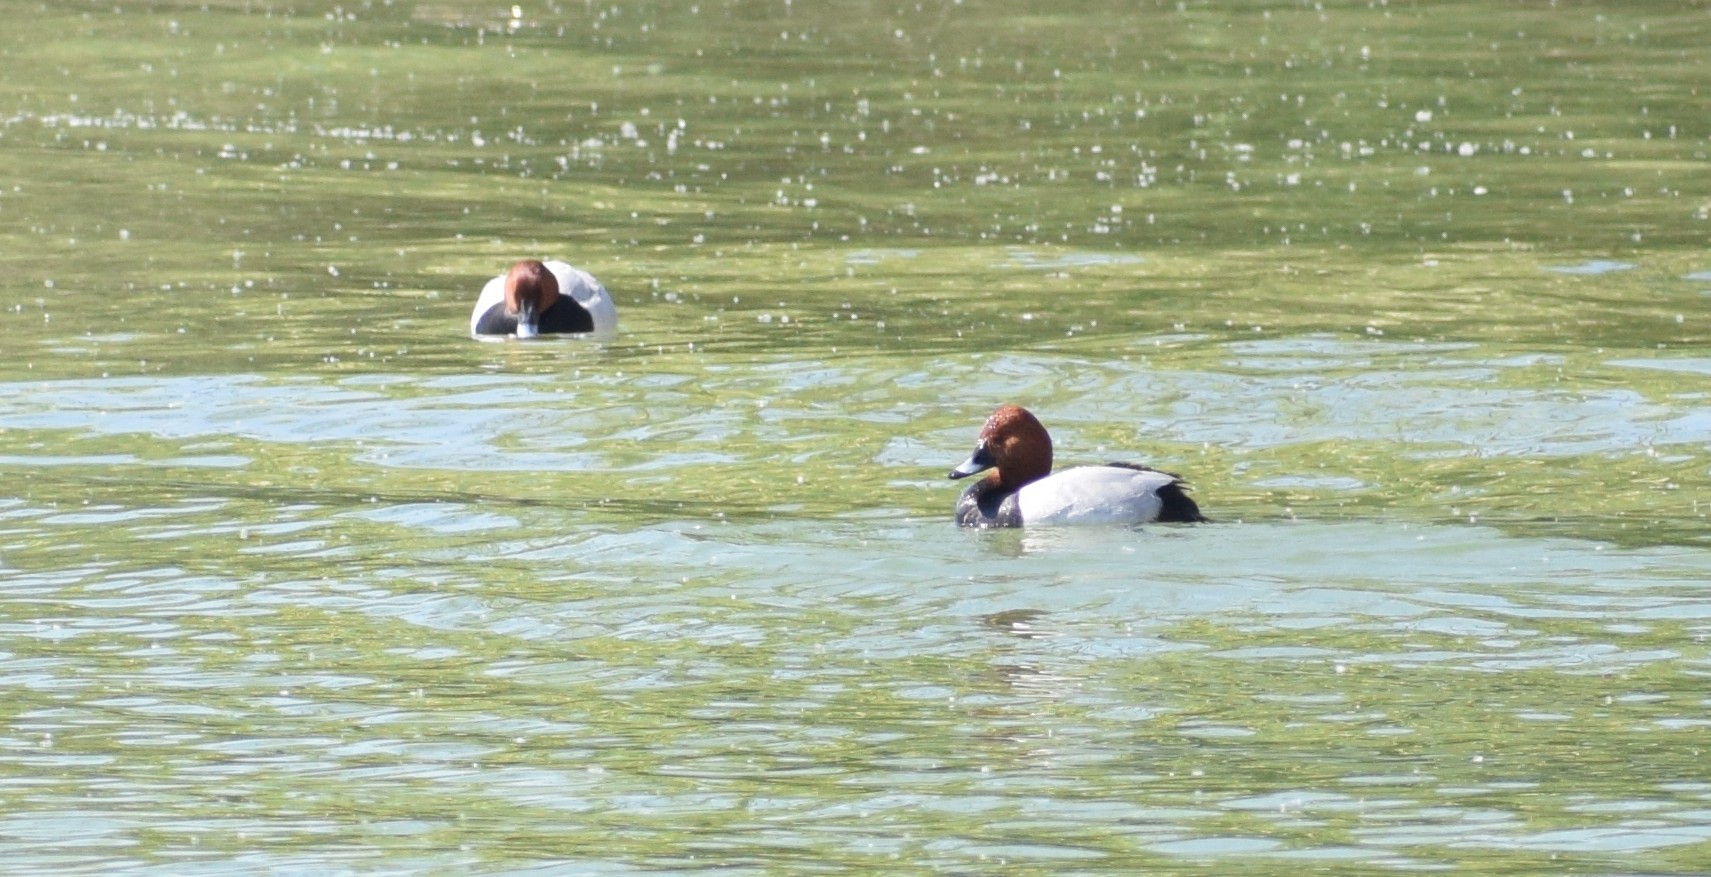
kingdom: Animalia
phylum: Chordata
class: Aves
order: Anseriformes
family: Anatidae
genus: Aythya
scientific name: Aythya ferina
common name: Common pochard
